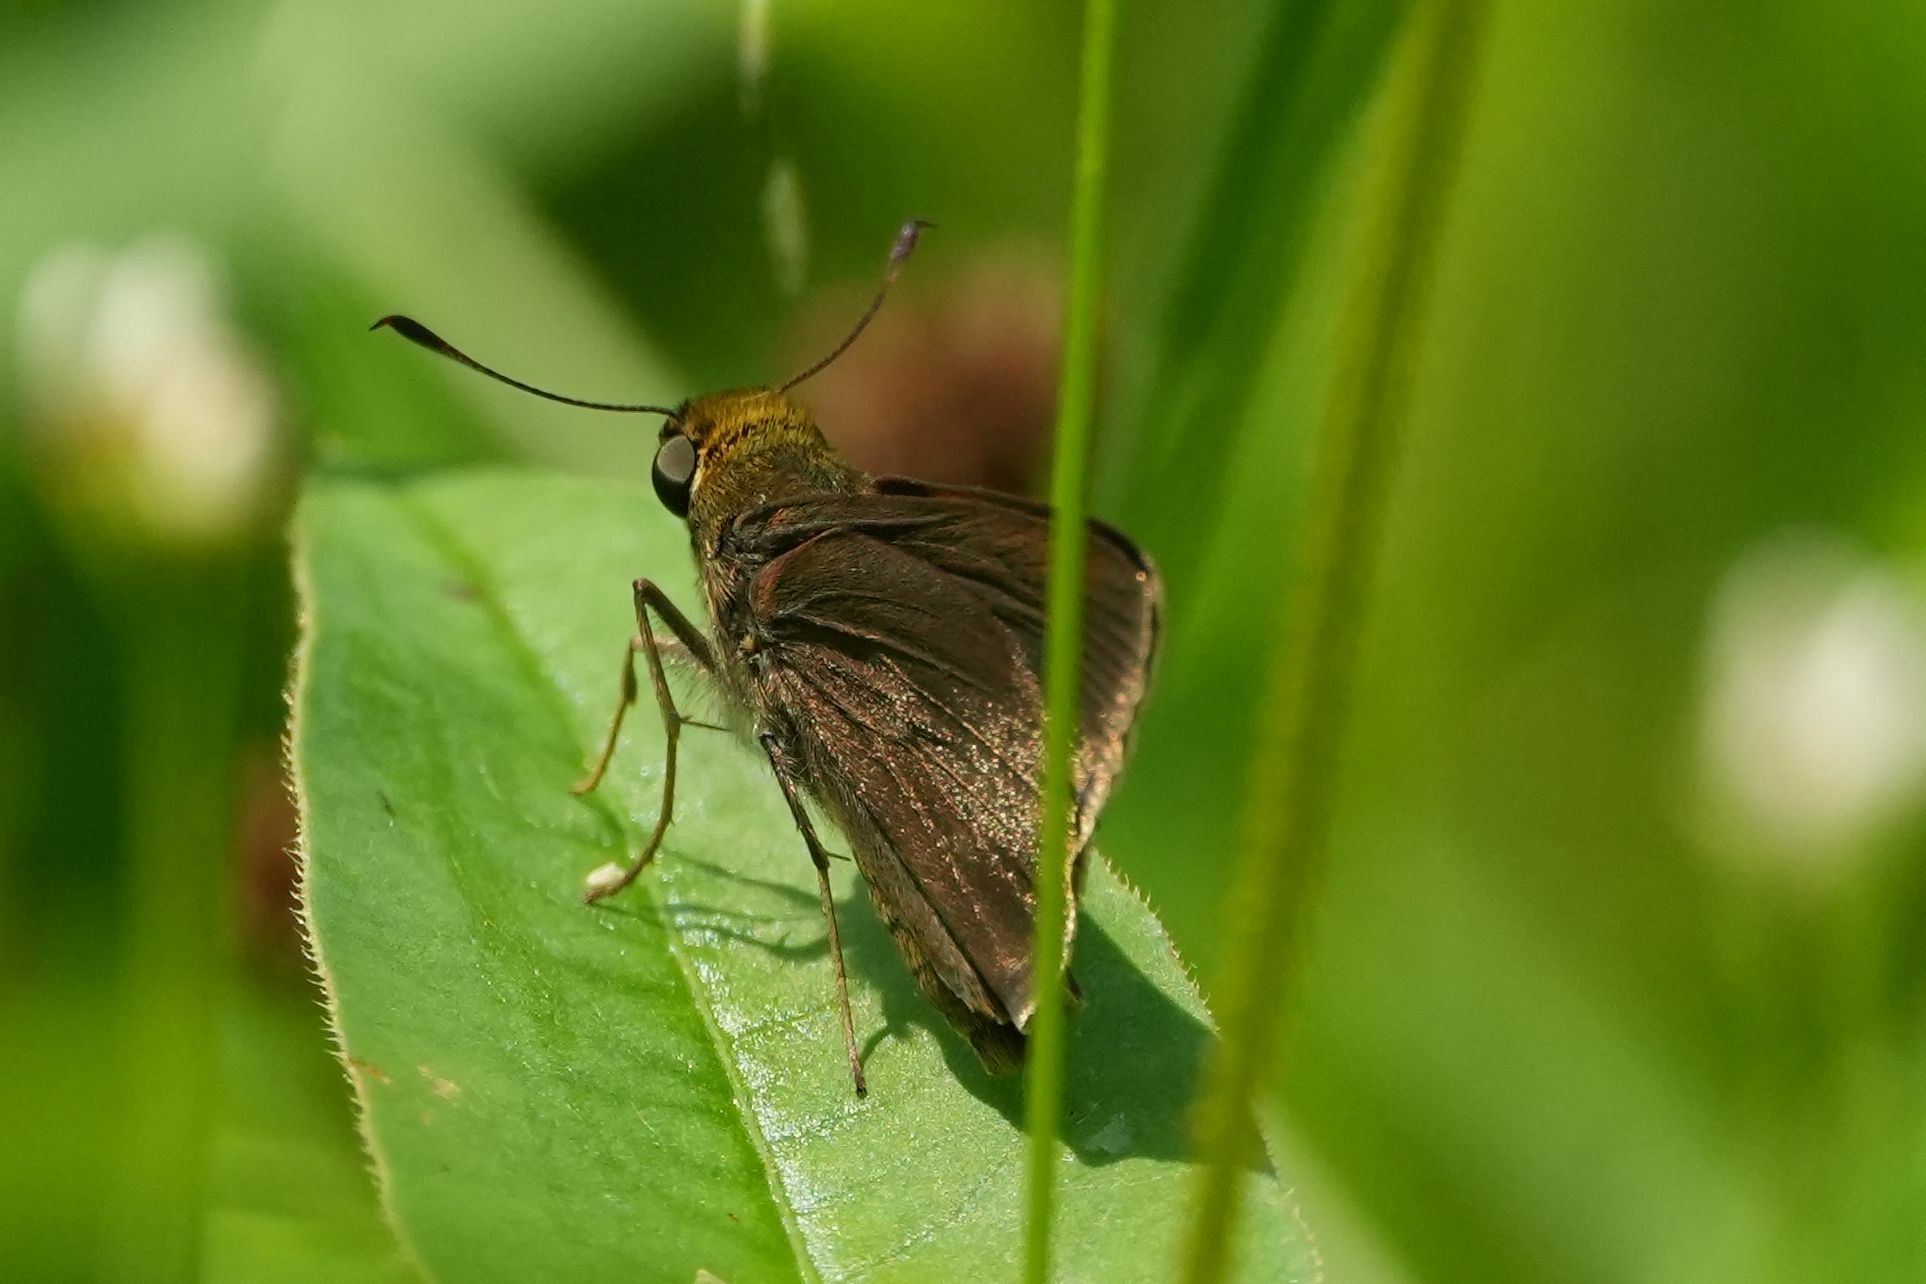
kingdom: Animalia
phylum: Arthropoda
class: Insecta
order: Lepidoptera
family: Hesperiidae
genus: Euphyes
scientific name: Euphyes vestris
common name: Dun skipper
